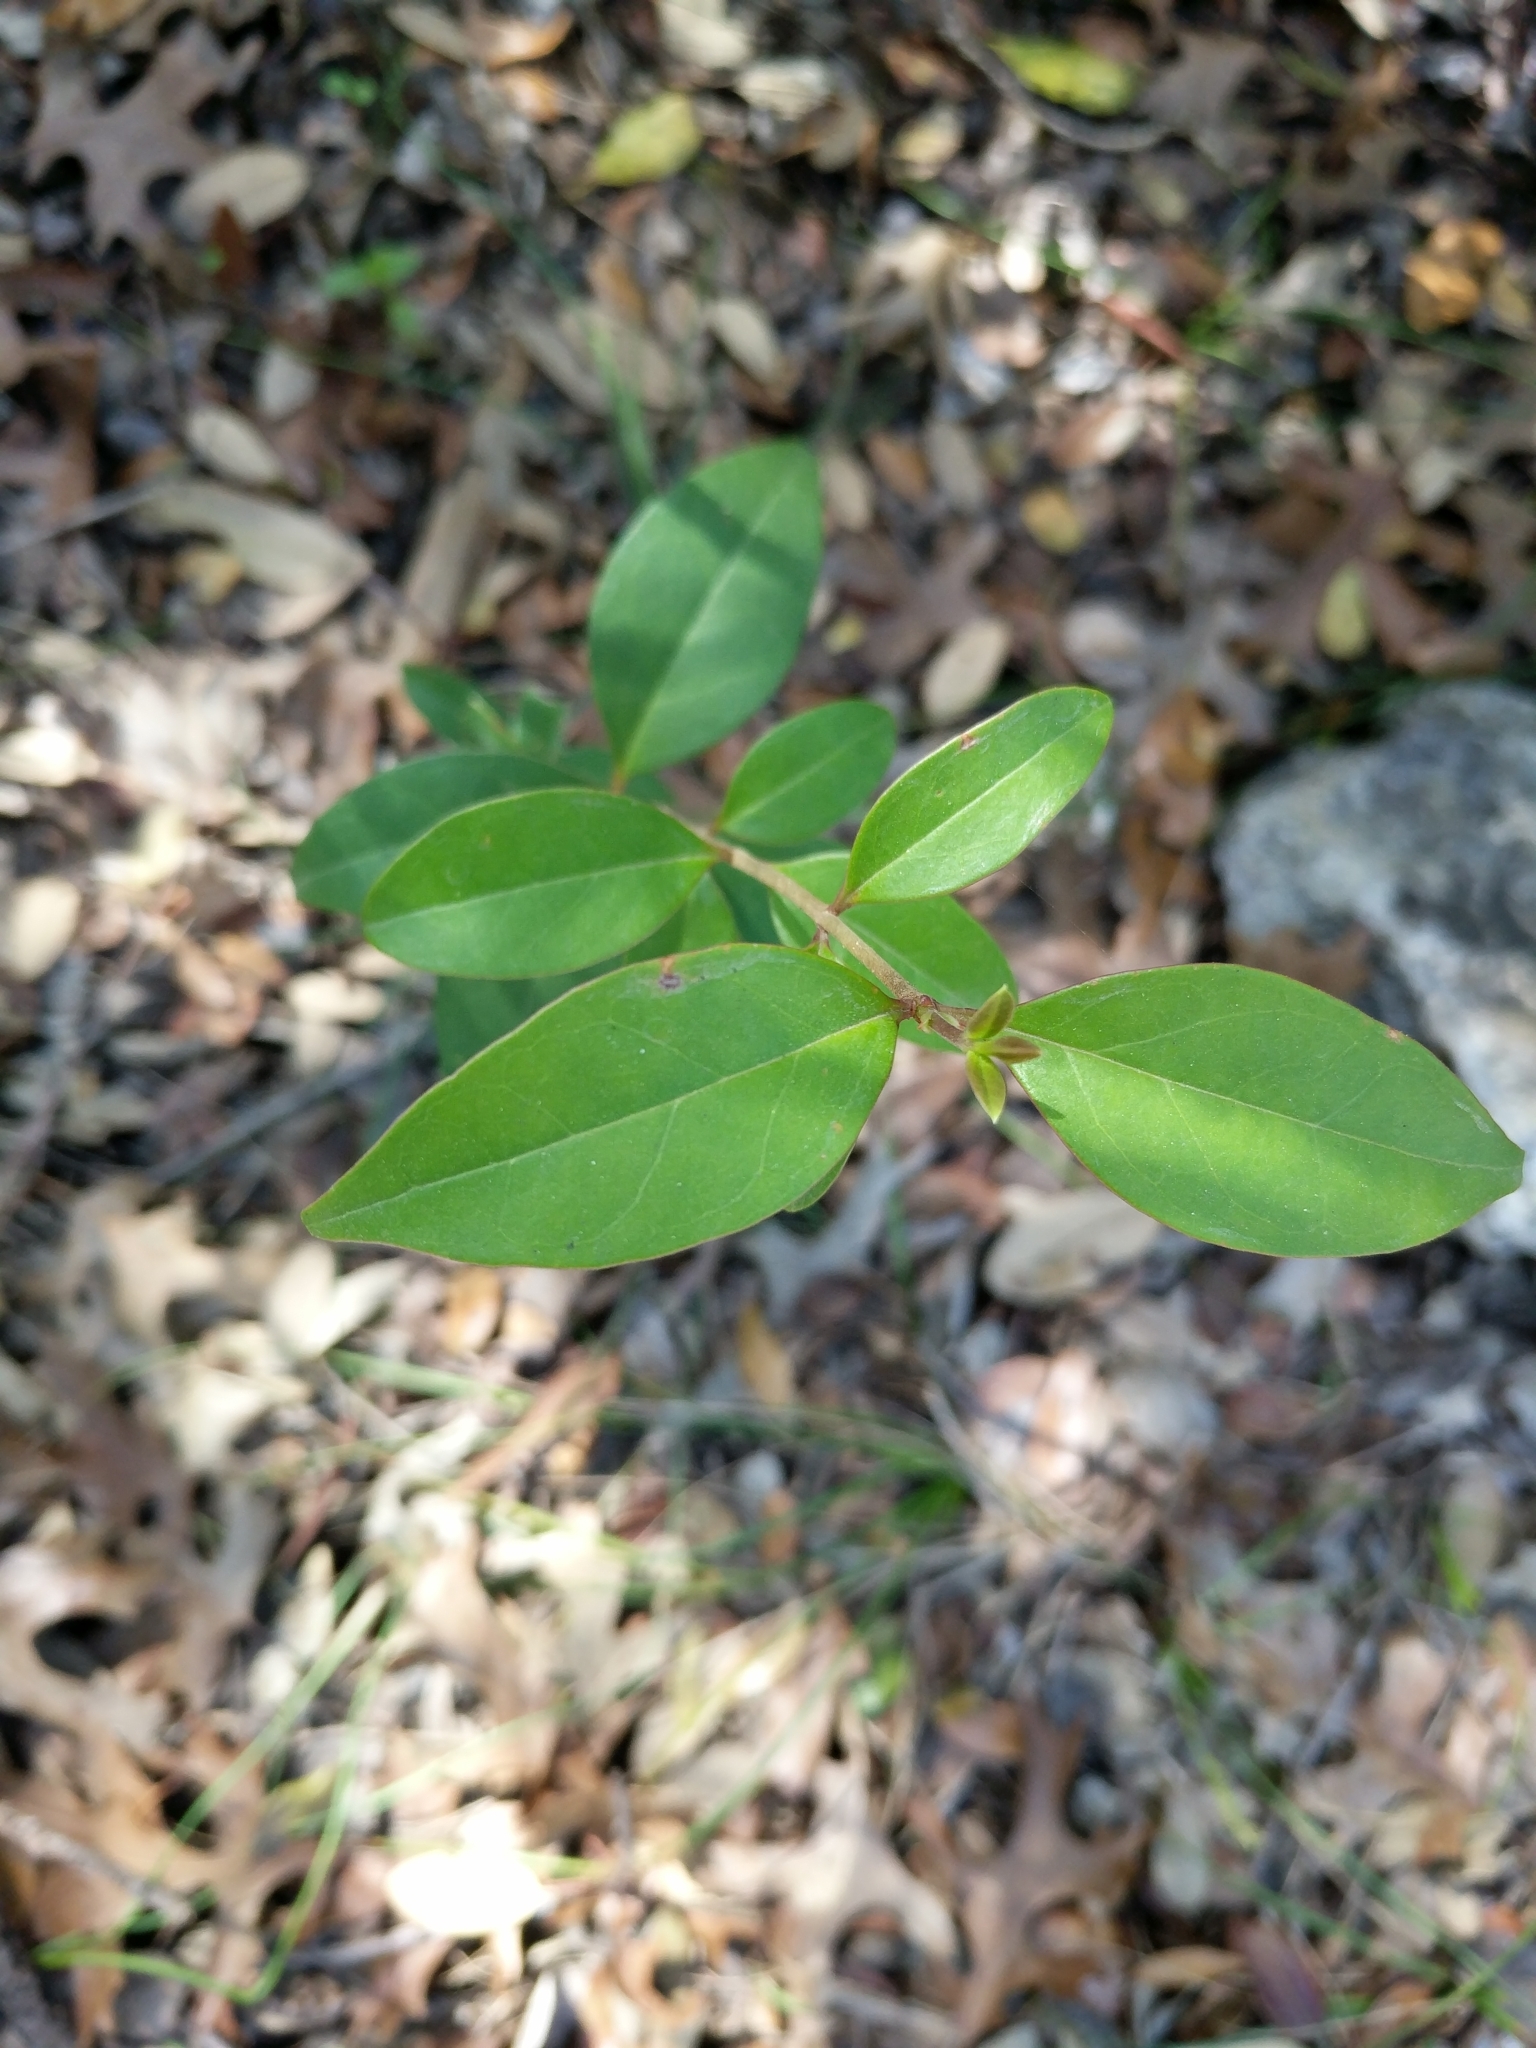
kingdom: Plantae
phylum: Tracheophyta
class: Magnoliopsida
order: Lamiales
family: Oleaceae
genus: Ligustrum
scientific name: Ligustrum lucidum
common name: Glossy privet
